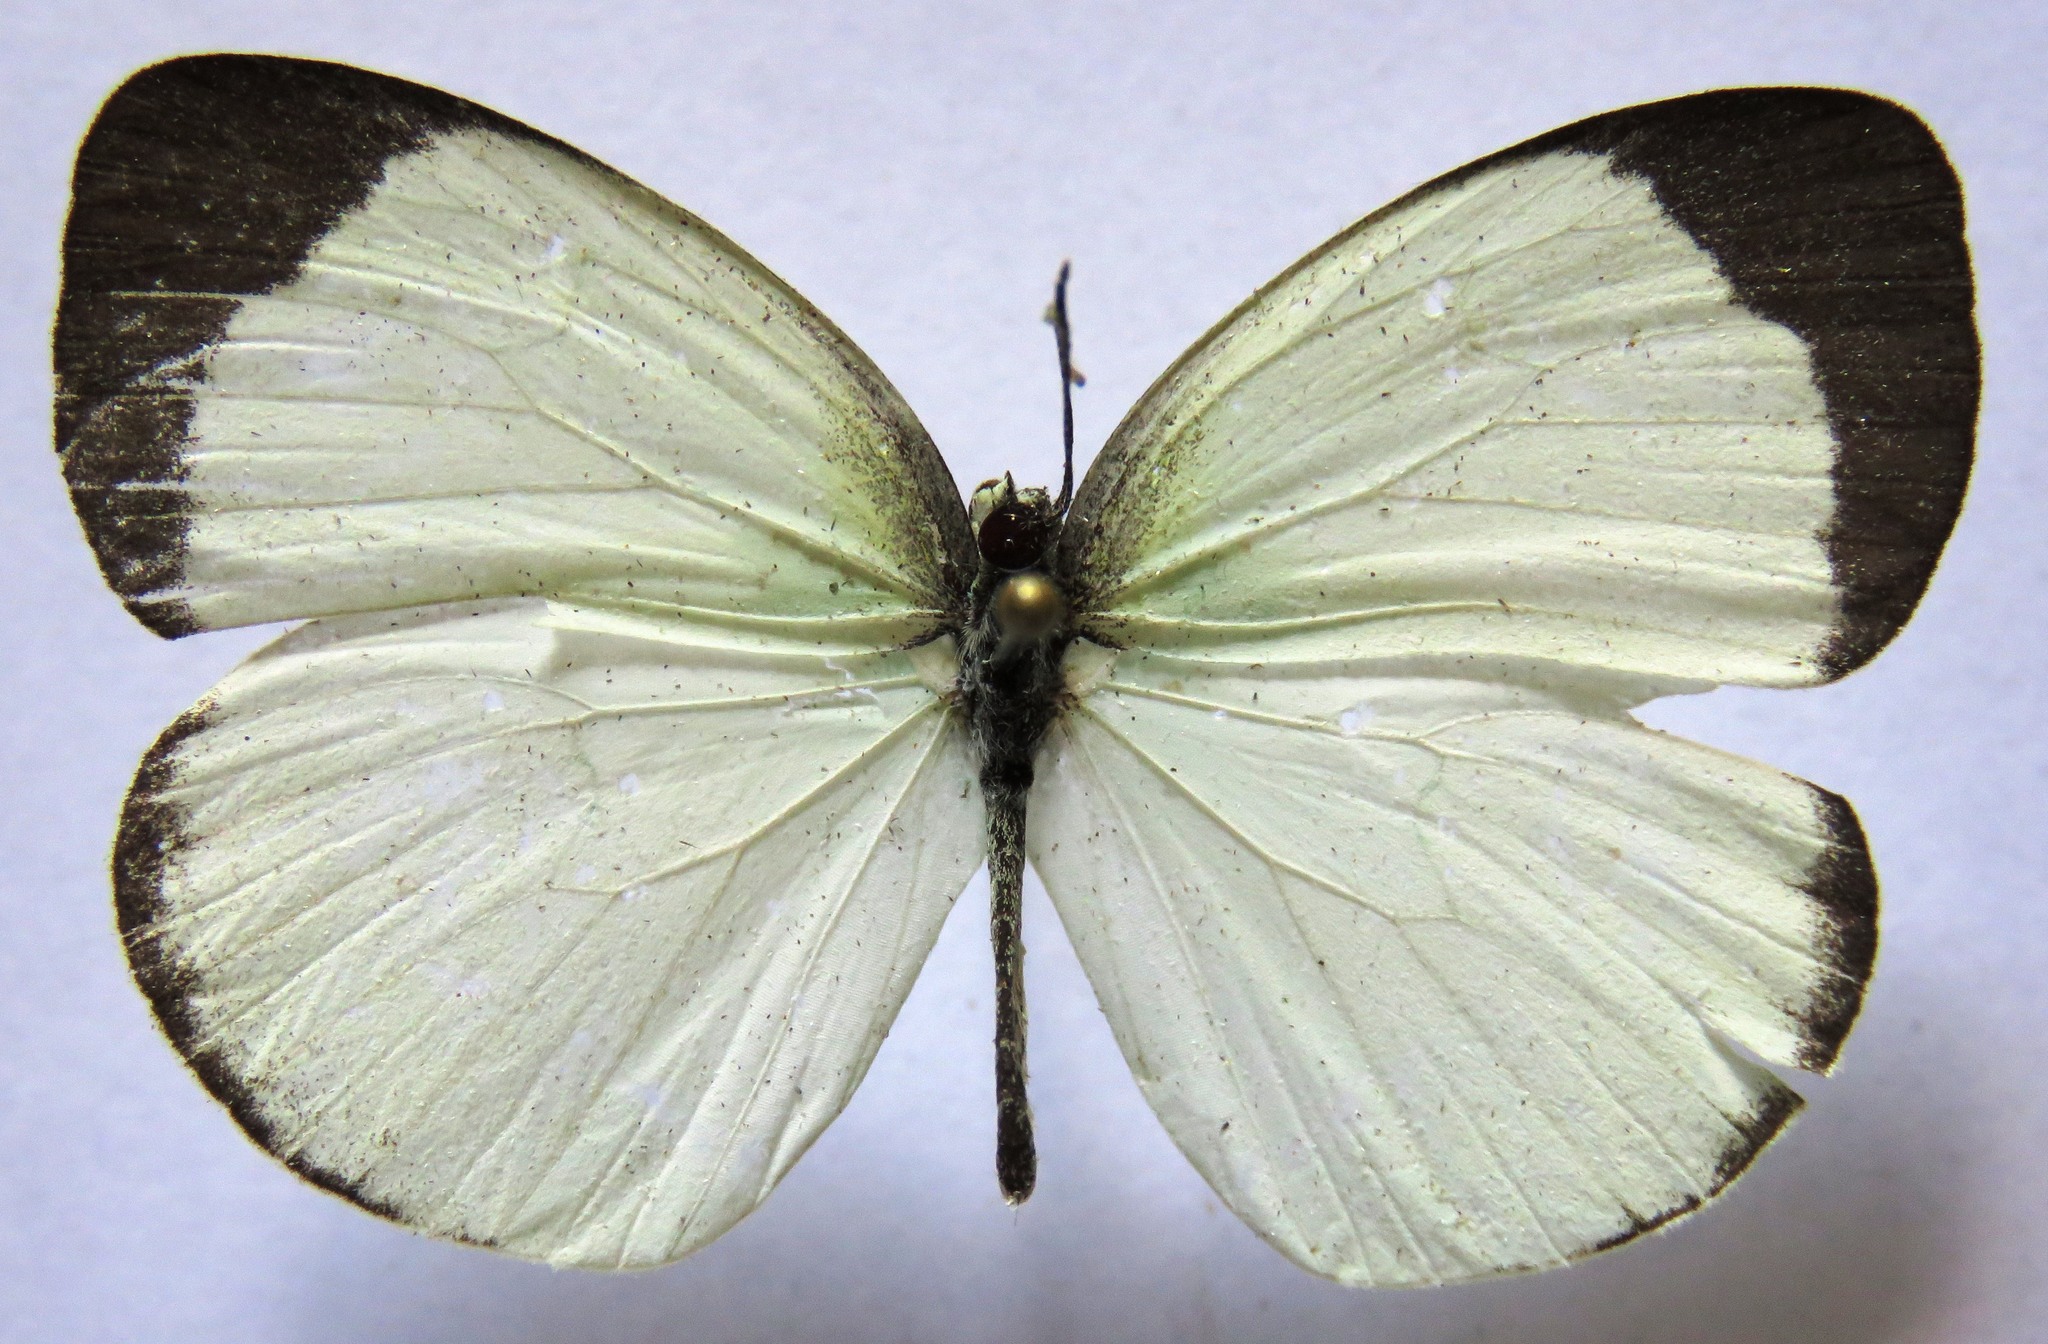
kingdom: Animalia
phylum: Arthropoda
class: Insecta
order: Lepidoptera
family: Pieridae
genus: Abaeis
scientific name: Abaeis albula
